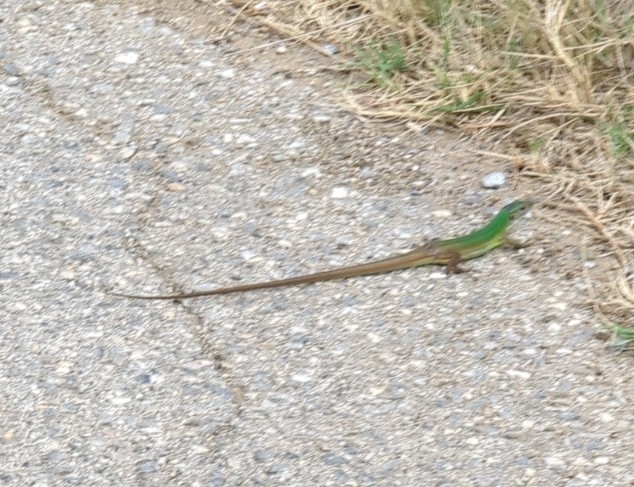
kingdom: Animalia
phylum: Chordata
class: Squamata
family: Lacertidae
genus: Lacerta
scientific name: Lacerta viridis
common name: European green lizard
